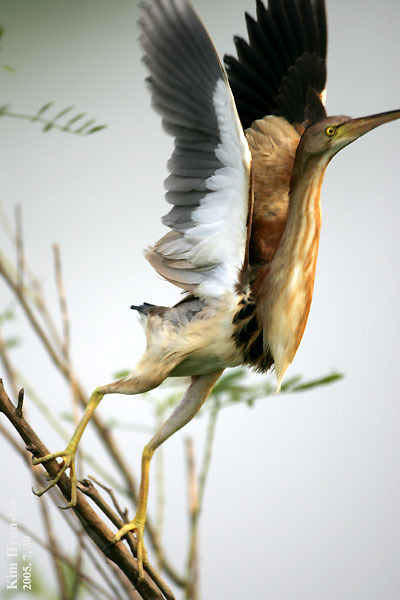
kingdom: Animalia
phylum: Chordata
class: Aves
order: Pelecaniformes
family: Ardeidae
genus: Ixobrychus
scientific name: Ixobrychus sinensis
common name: Yellow bittern
